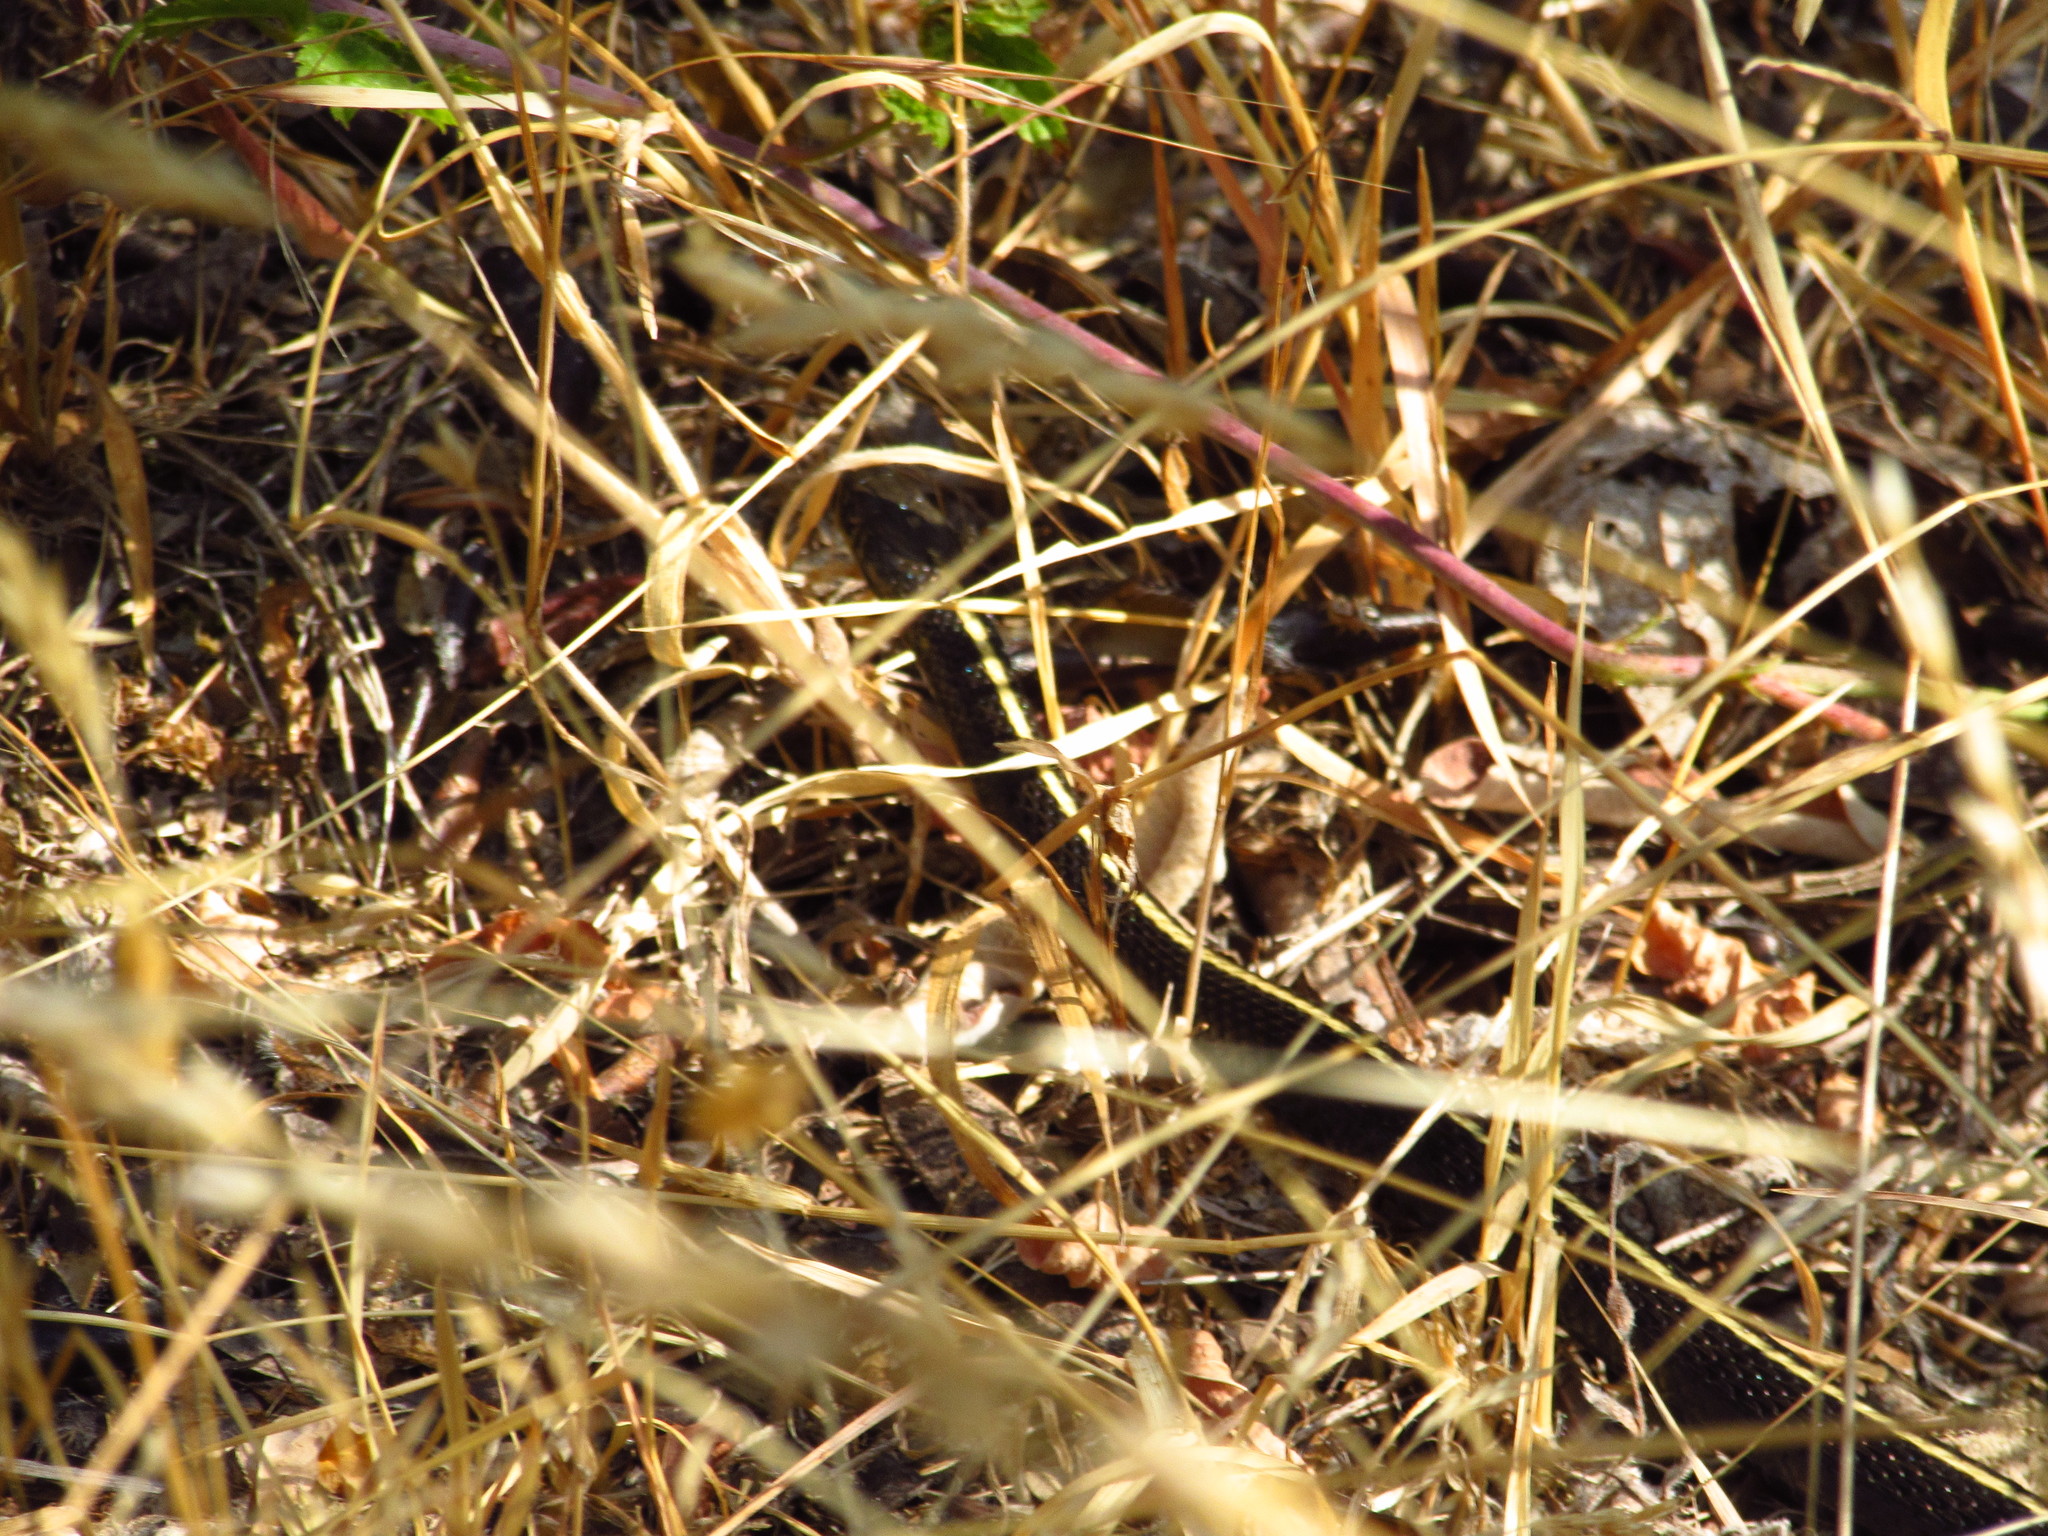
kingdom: Animalia
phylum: Chordata
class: Squamata
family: Colubridae
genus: Thamnophis
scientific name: Thamnophis ordinoides
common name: Northwestern garter snake
